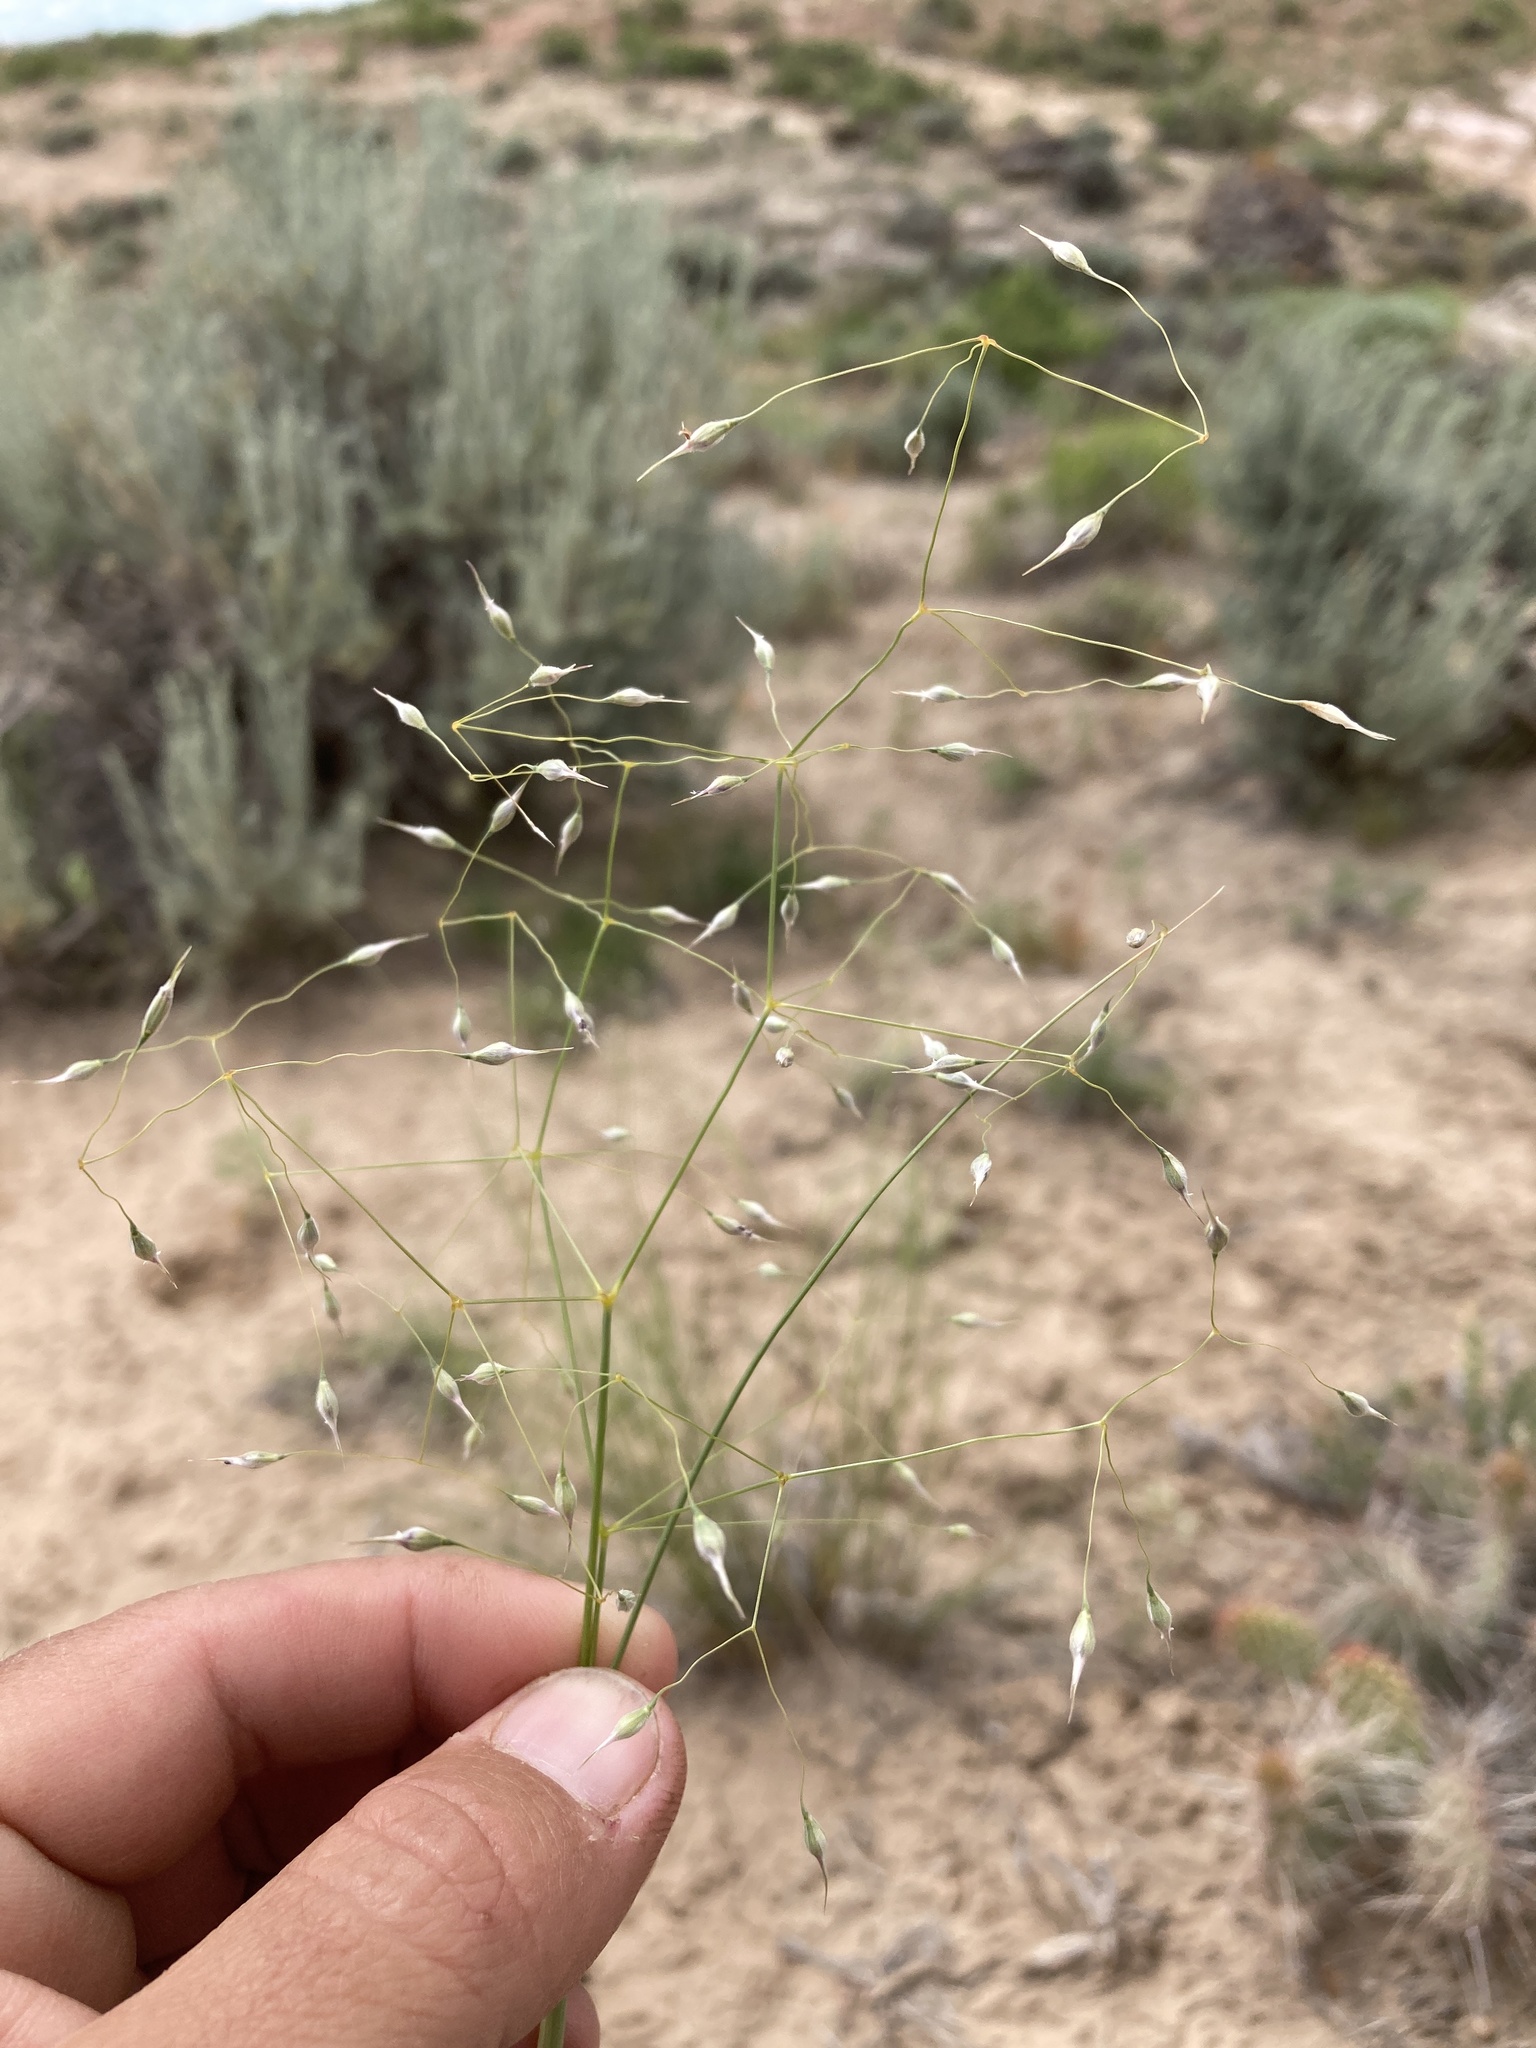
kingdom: Plantae
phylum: Tracheophyta
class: Liliopsida
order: Poales
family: Poaceae
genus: Eriocoma
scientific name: Eriocoma hymenoides
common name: Indian mountain ricegrass
